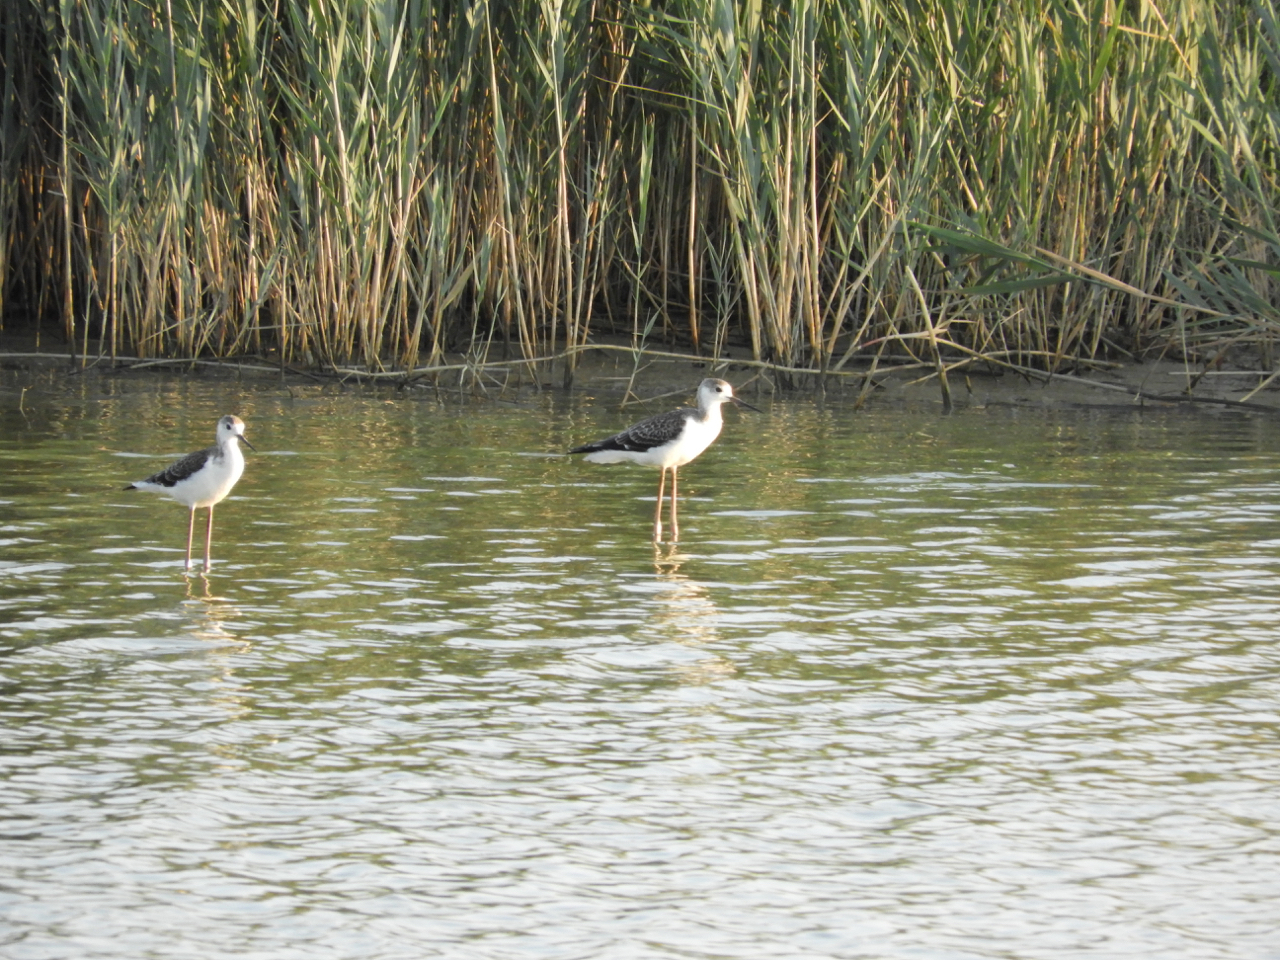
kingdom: Animalia
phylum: Chordata
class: Aves
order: Charadriiformes
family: Recurvirostridae
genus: Himantopus
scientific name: Himantopus himantopus
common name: Black-winged stilt
